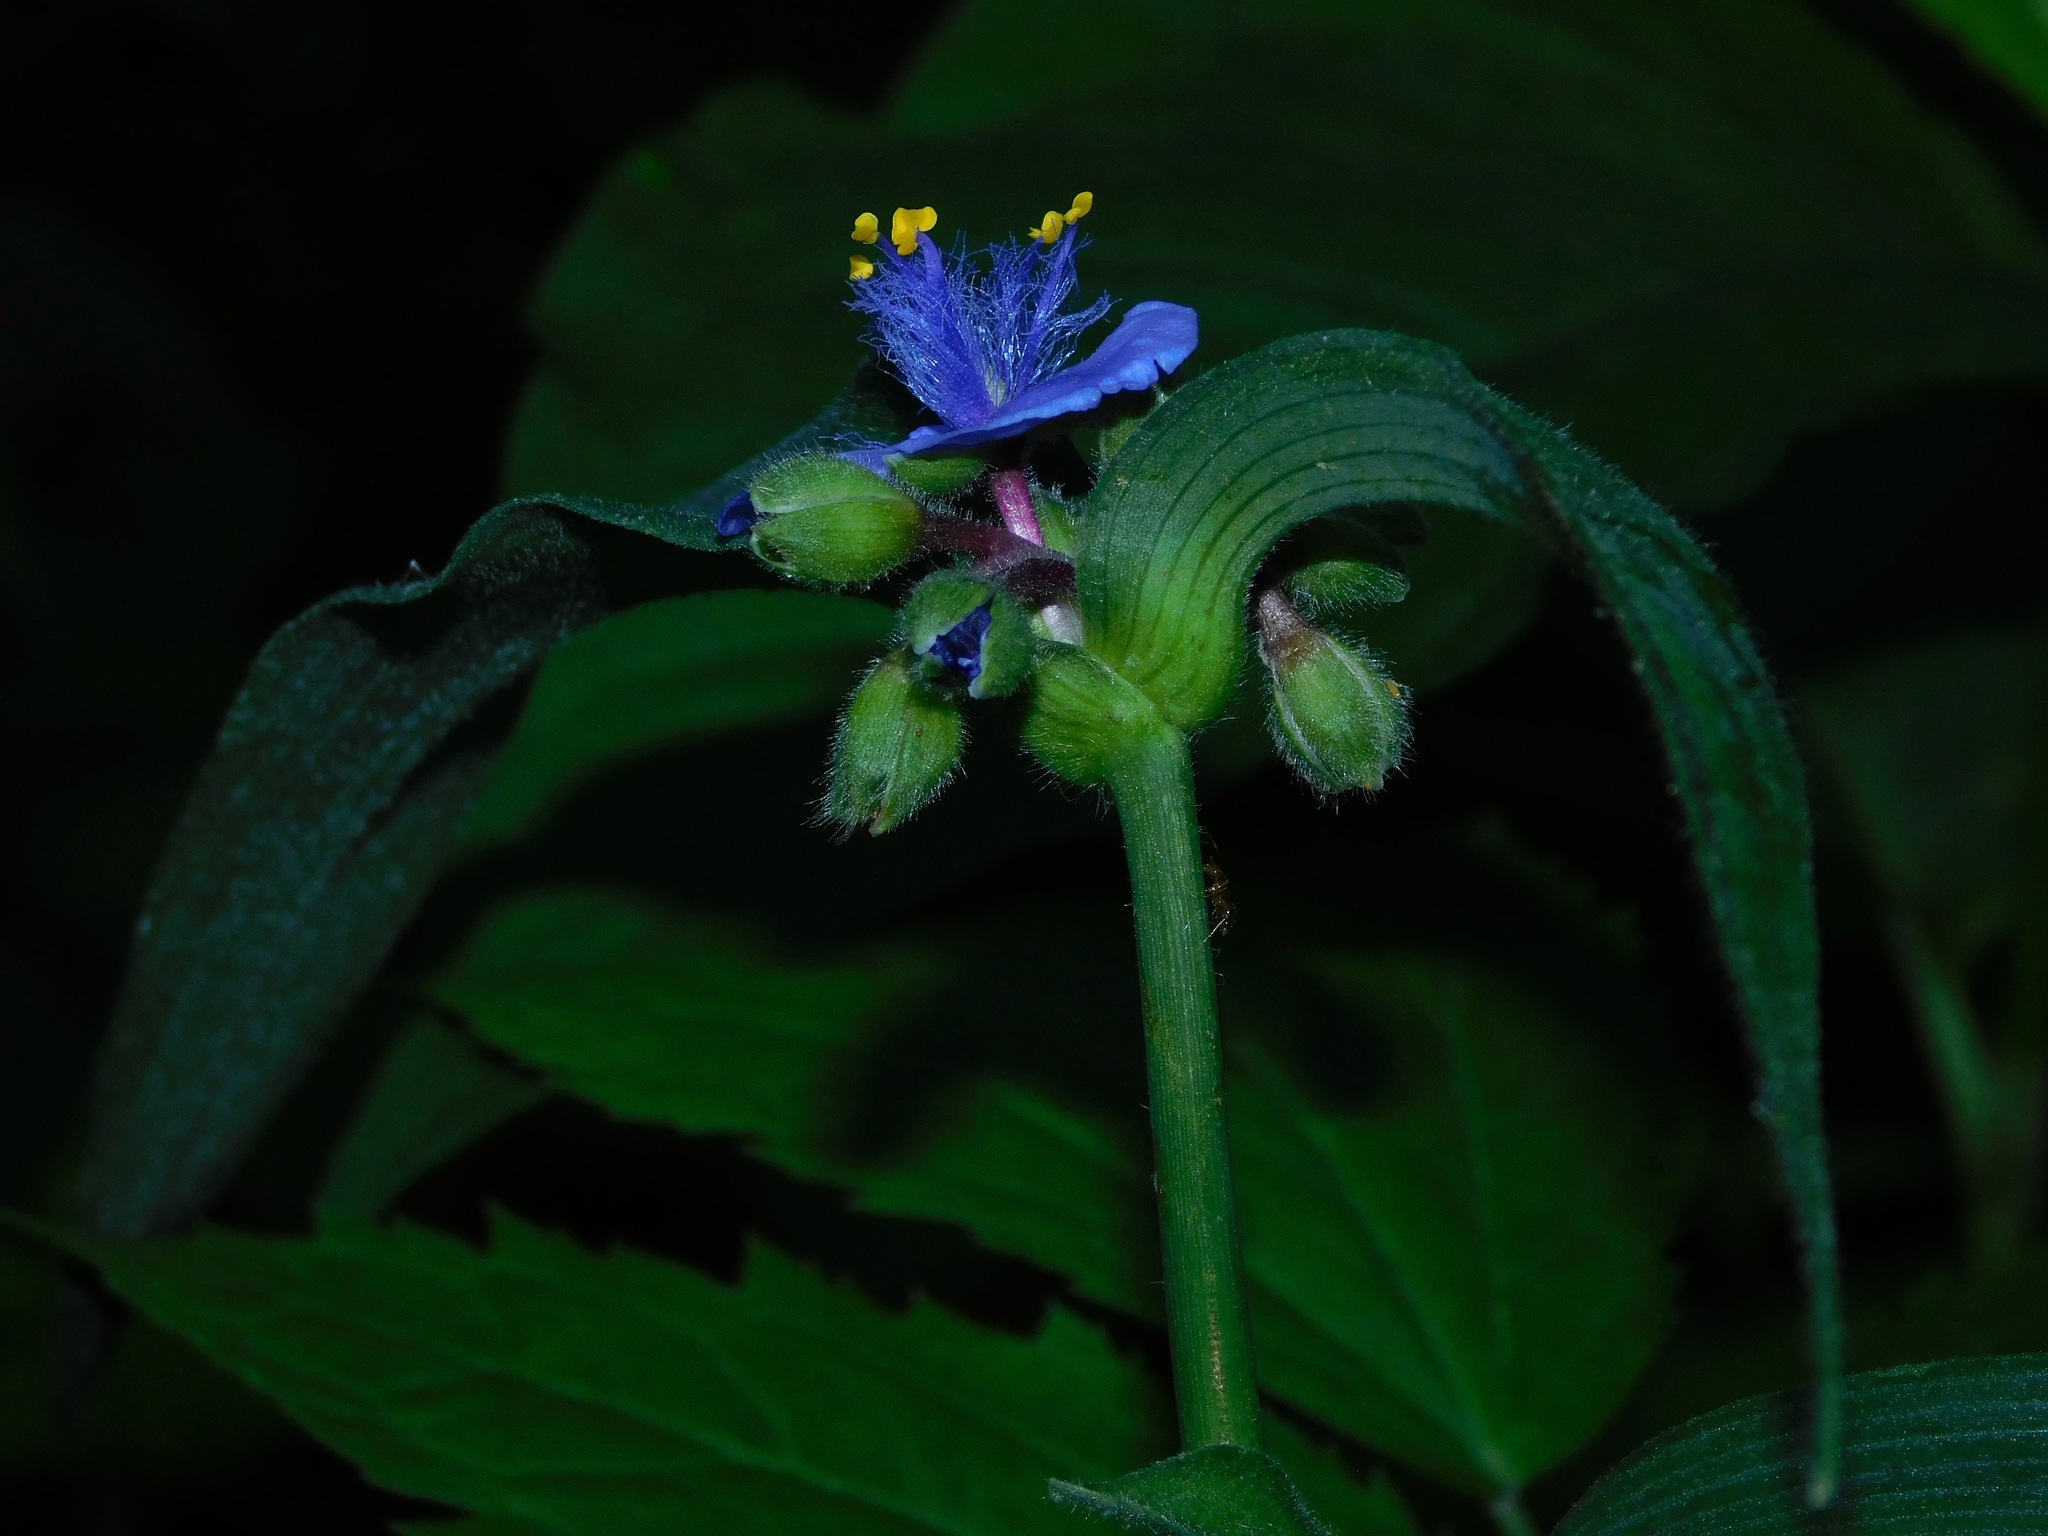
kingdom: Plantae
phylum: Tracheophyta
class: Liliopsida
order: Commelinales
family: Commelinaceae
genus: Tradescantia
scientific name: Tradescantia subaspera
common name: Wide-leaf spiderwort
